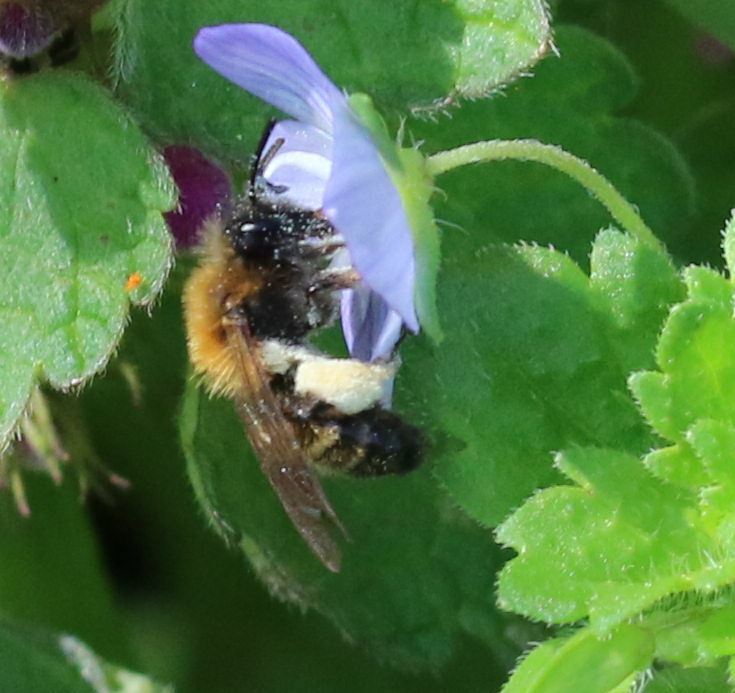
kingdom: Animalia
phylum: Arthropoda
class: Insecta
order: Hymenoptera
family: Andrenidae
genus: Andrena
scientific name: Andrena bicolor
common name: Gwynne's mining bee
